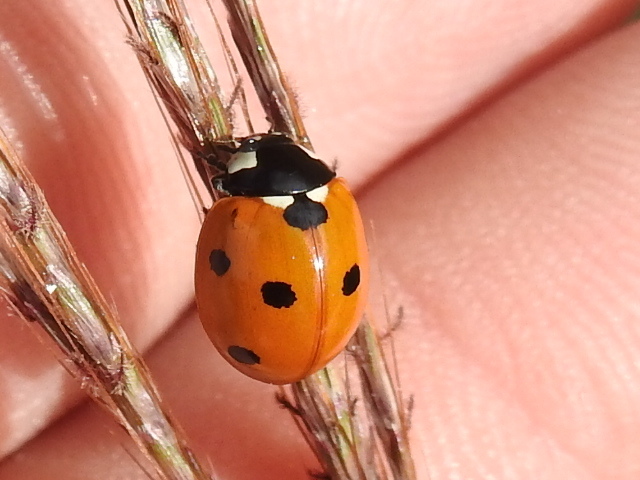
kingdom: Animalia
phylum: Arthropoda
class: Insecta
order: Coleoptera
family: Coccinellidae
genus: Coccinella
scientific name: Coccinella septempunctata
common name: Sevenspotted lady beetle
